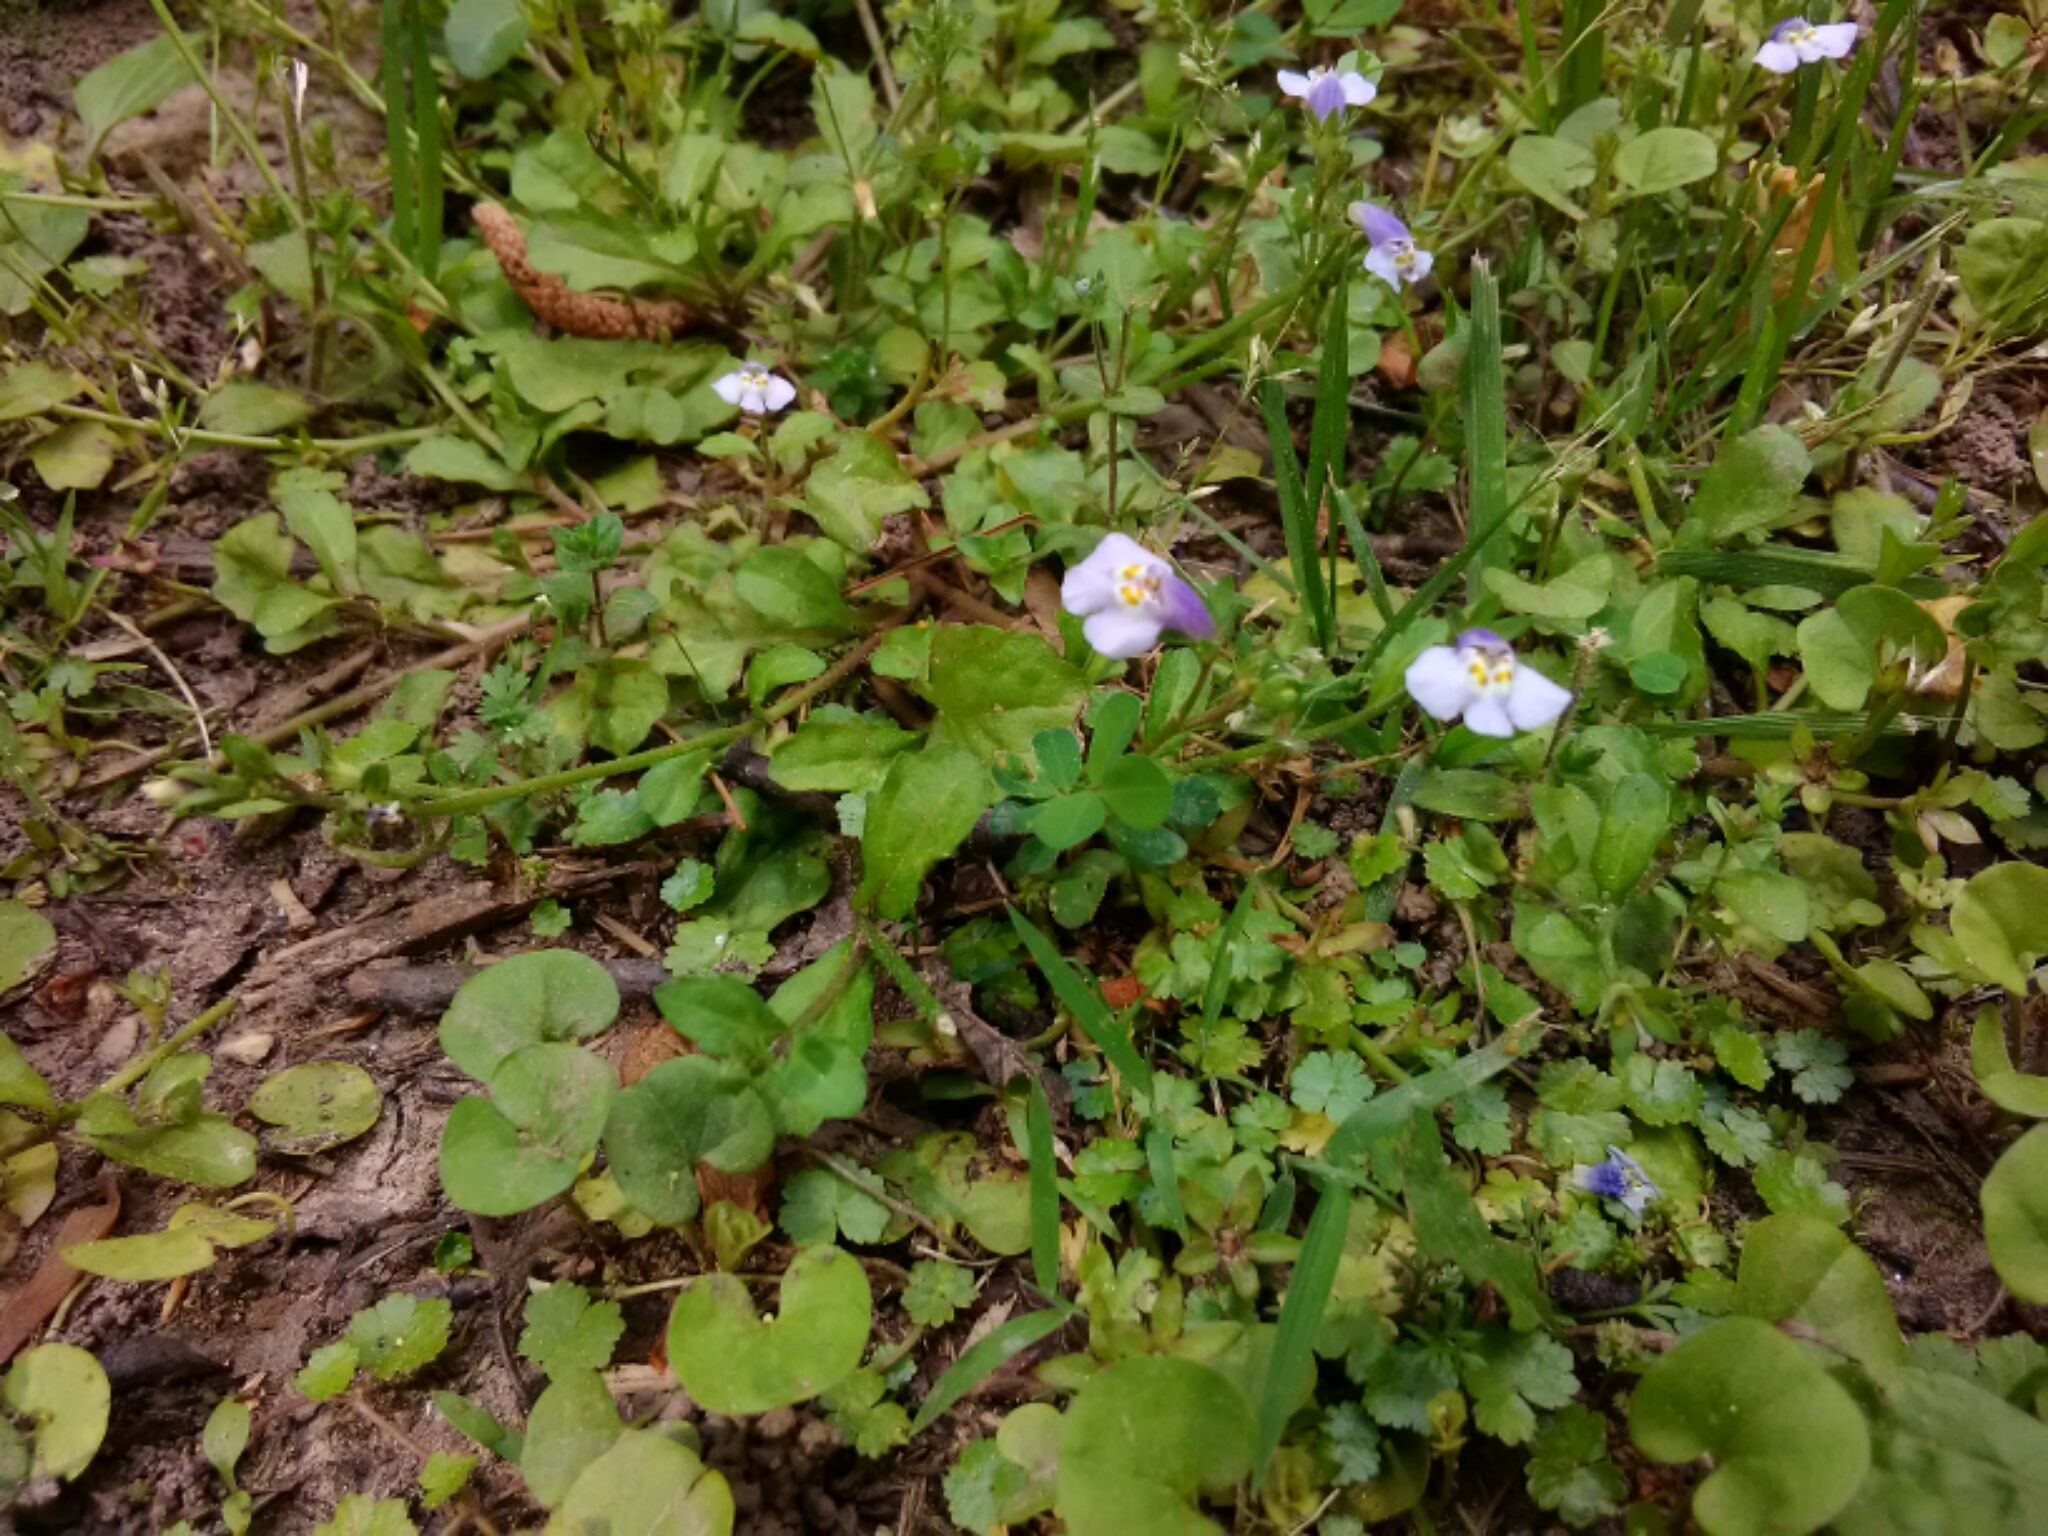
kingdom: Plantae
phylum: Tracheophyta
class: Magnoliopsida
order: Lamiales
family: Mazaceae
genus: Mazus
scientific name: Mazus pumilus
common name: Japanese mazus
